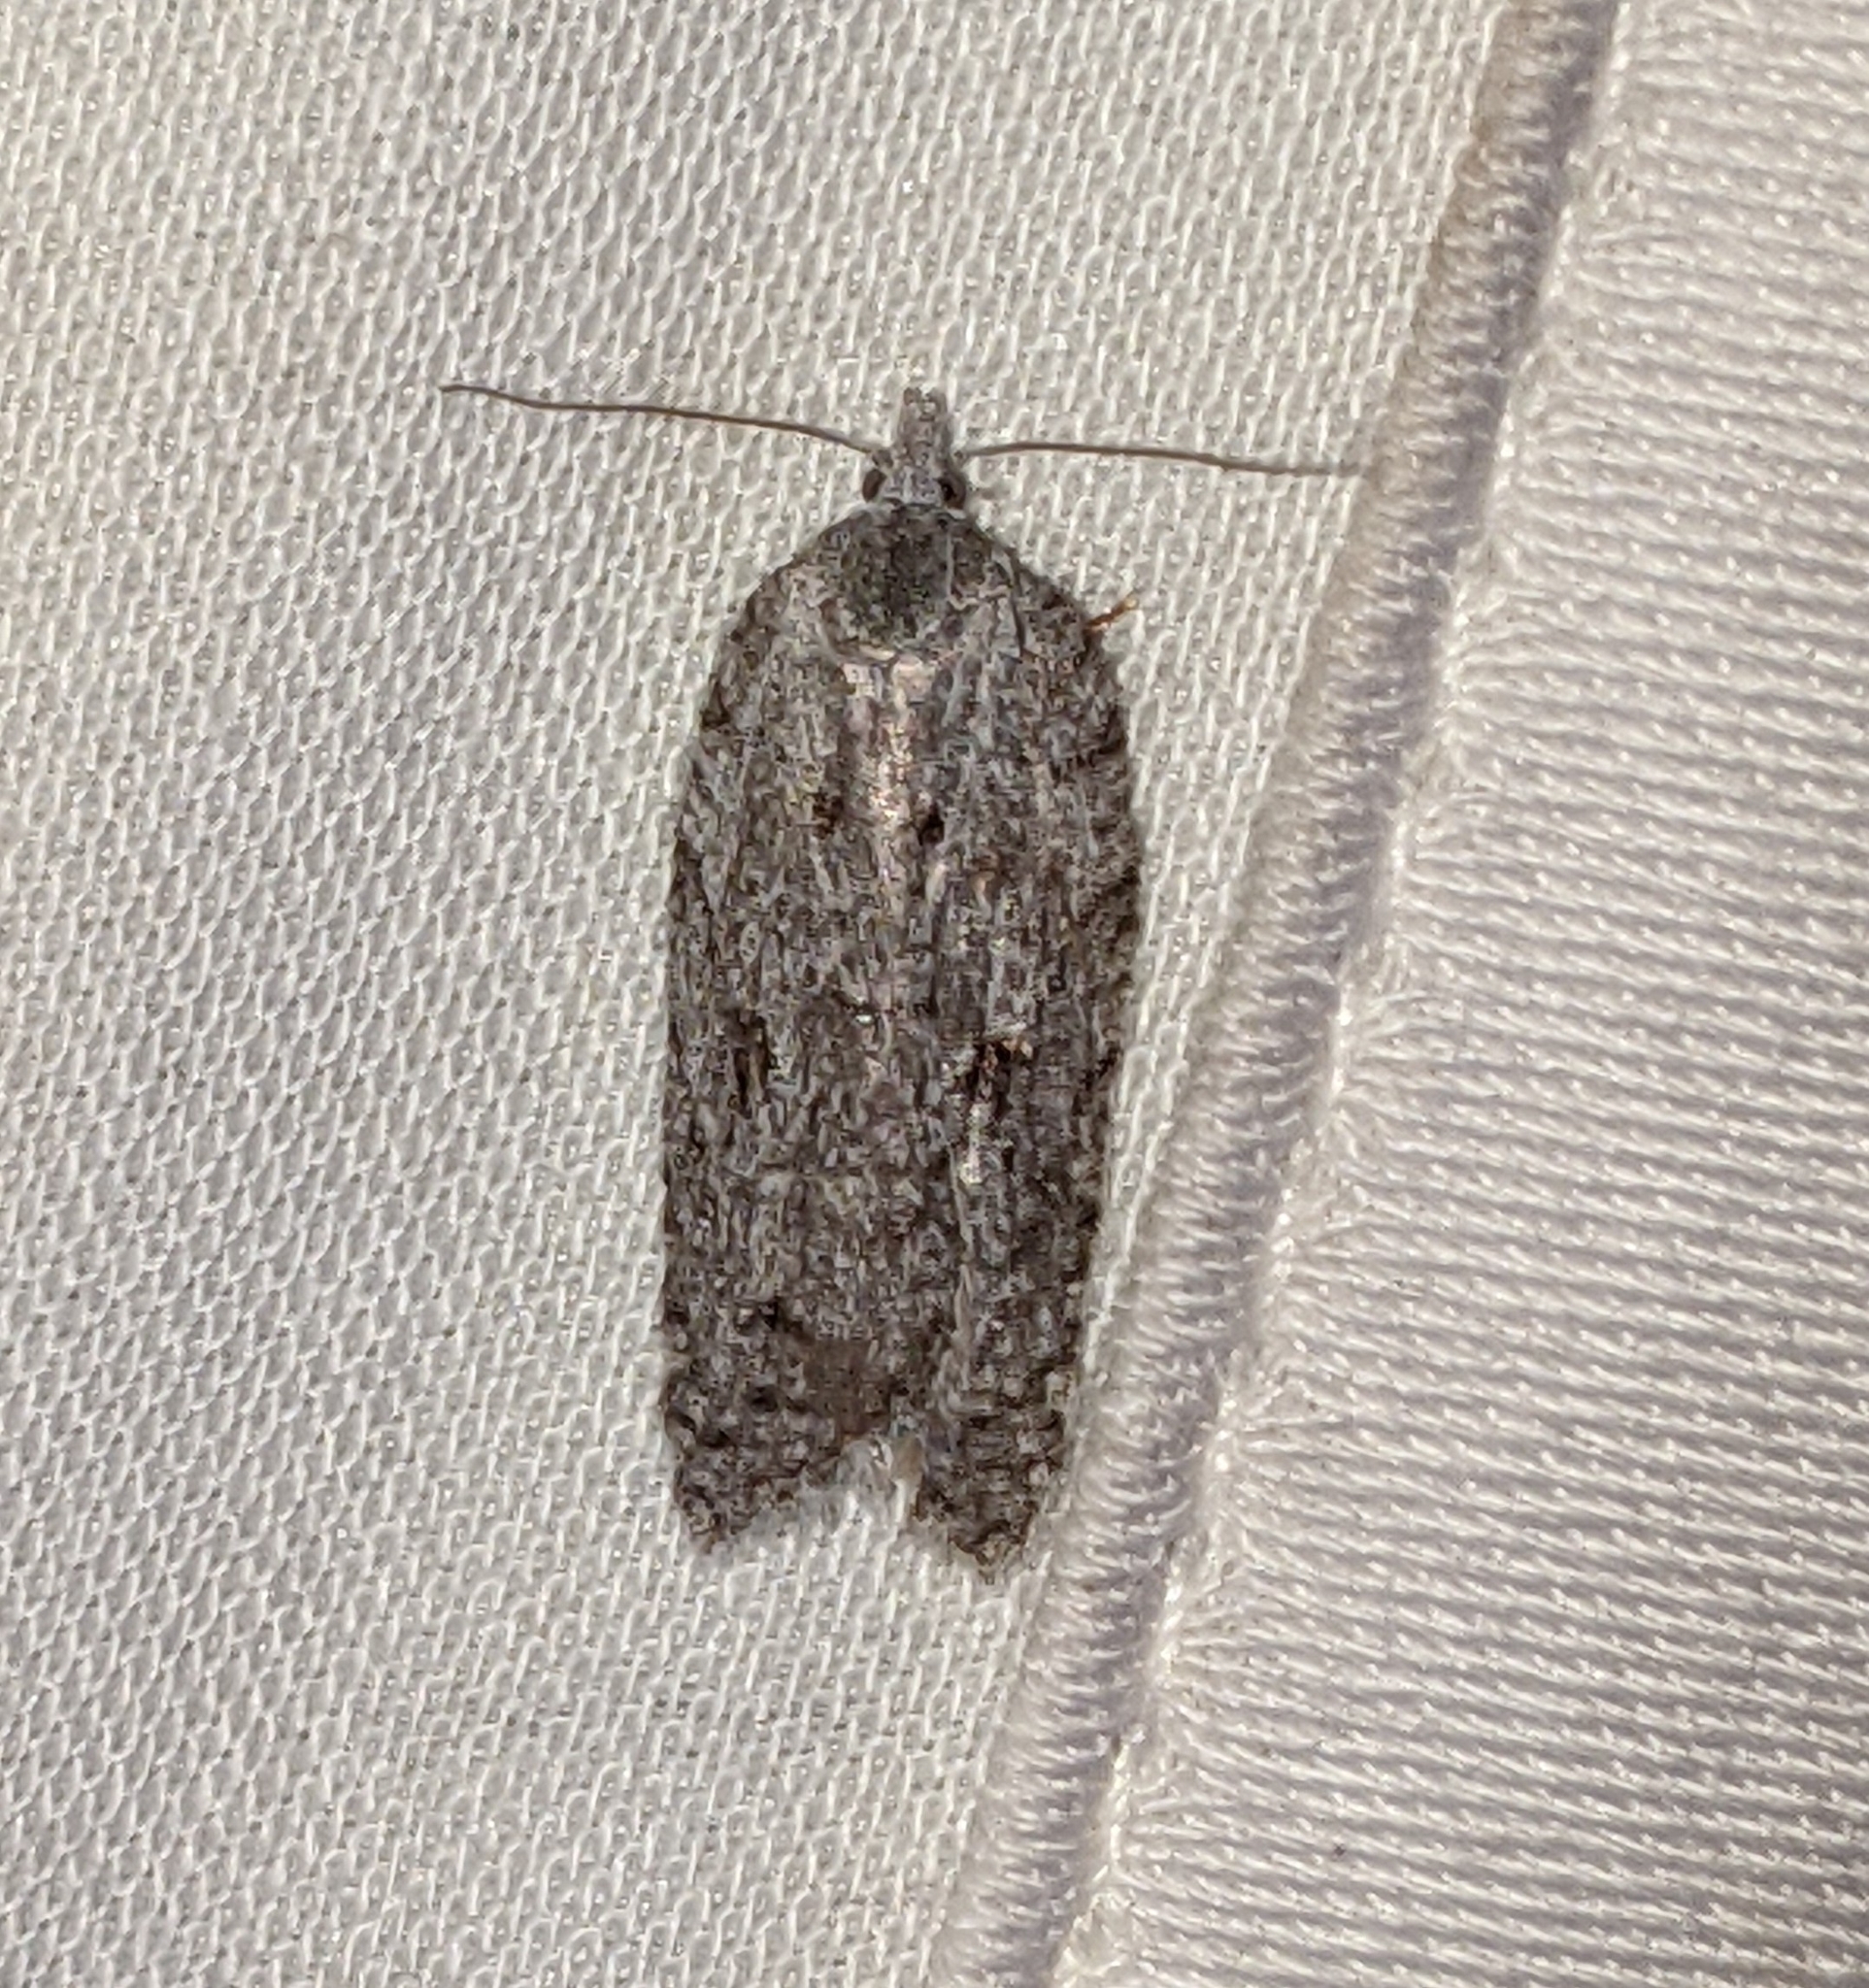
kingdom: Animalia
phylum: Arthropoda
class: Insecta
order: Lepidoptera
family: Tortricidae
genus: Acleris
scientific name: Acleris maximana
